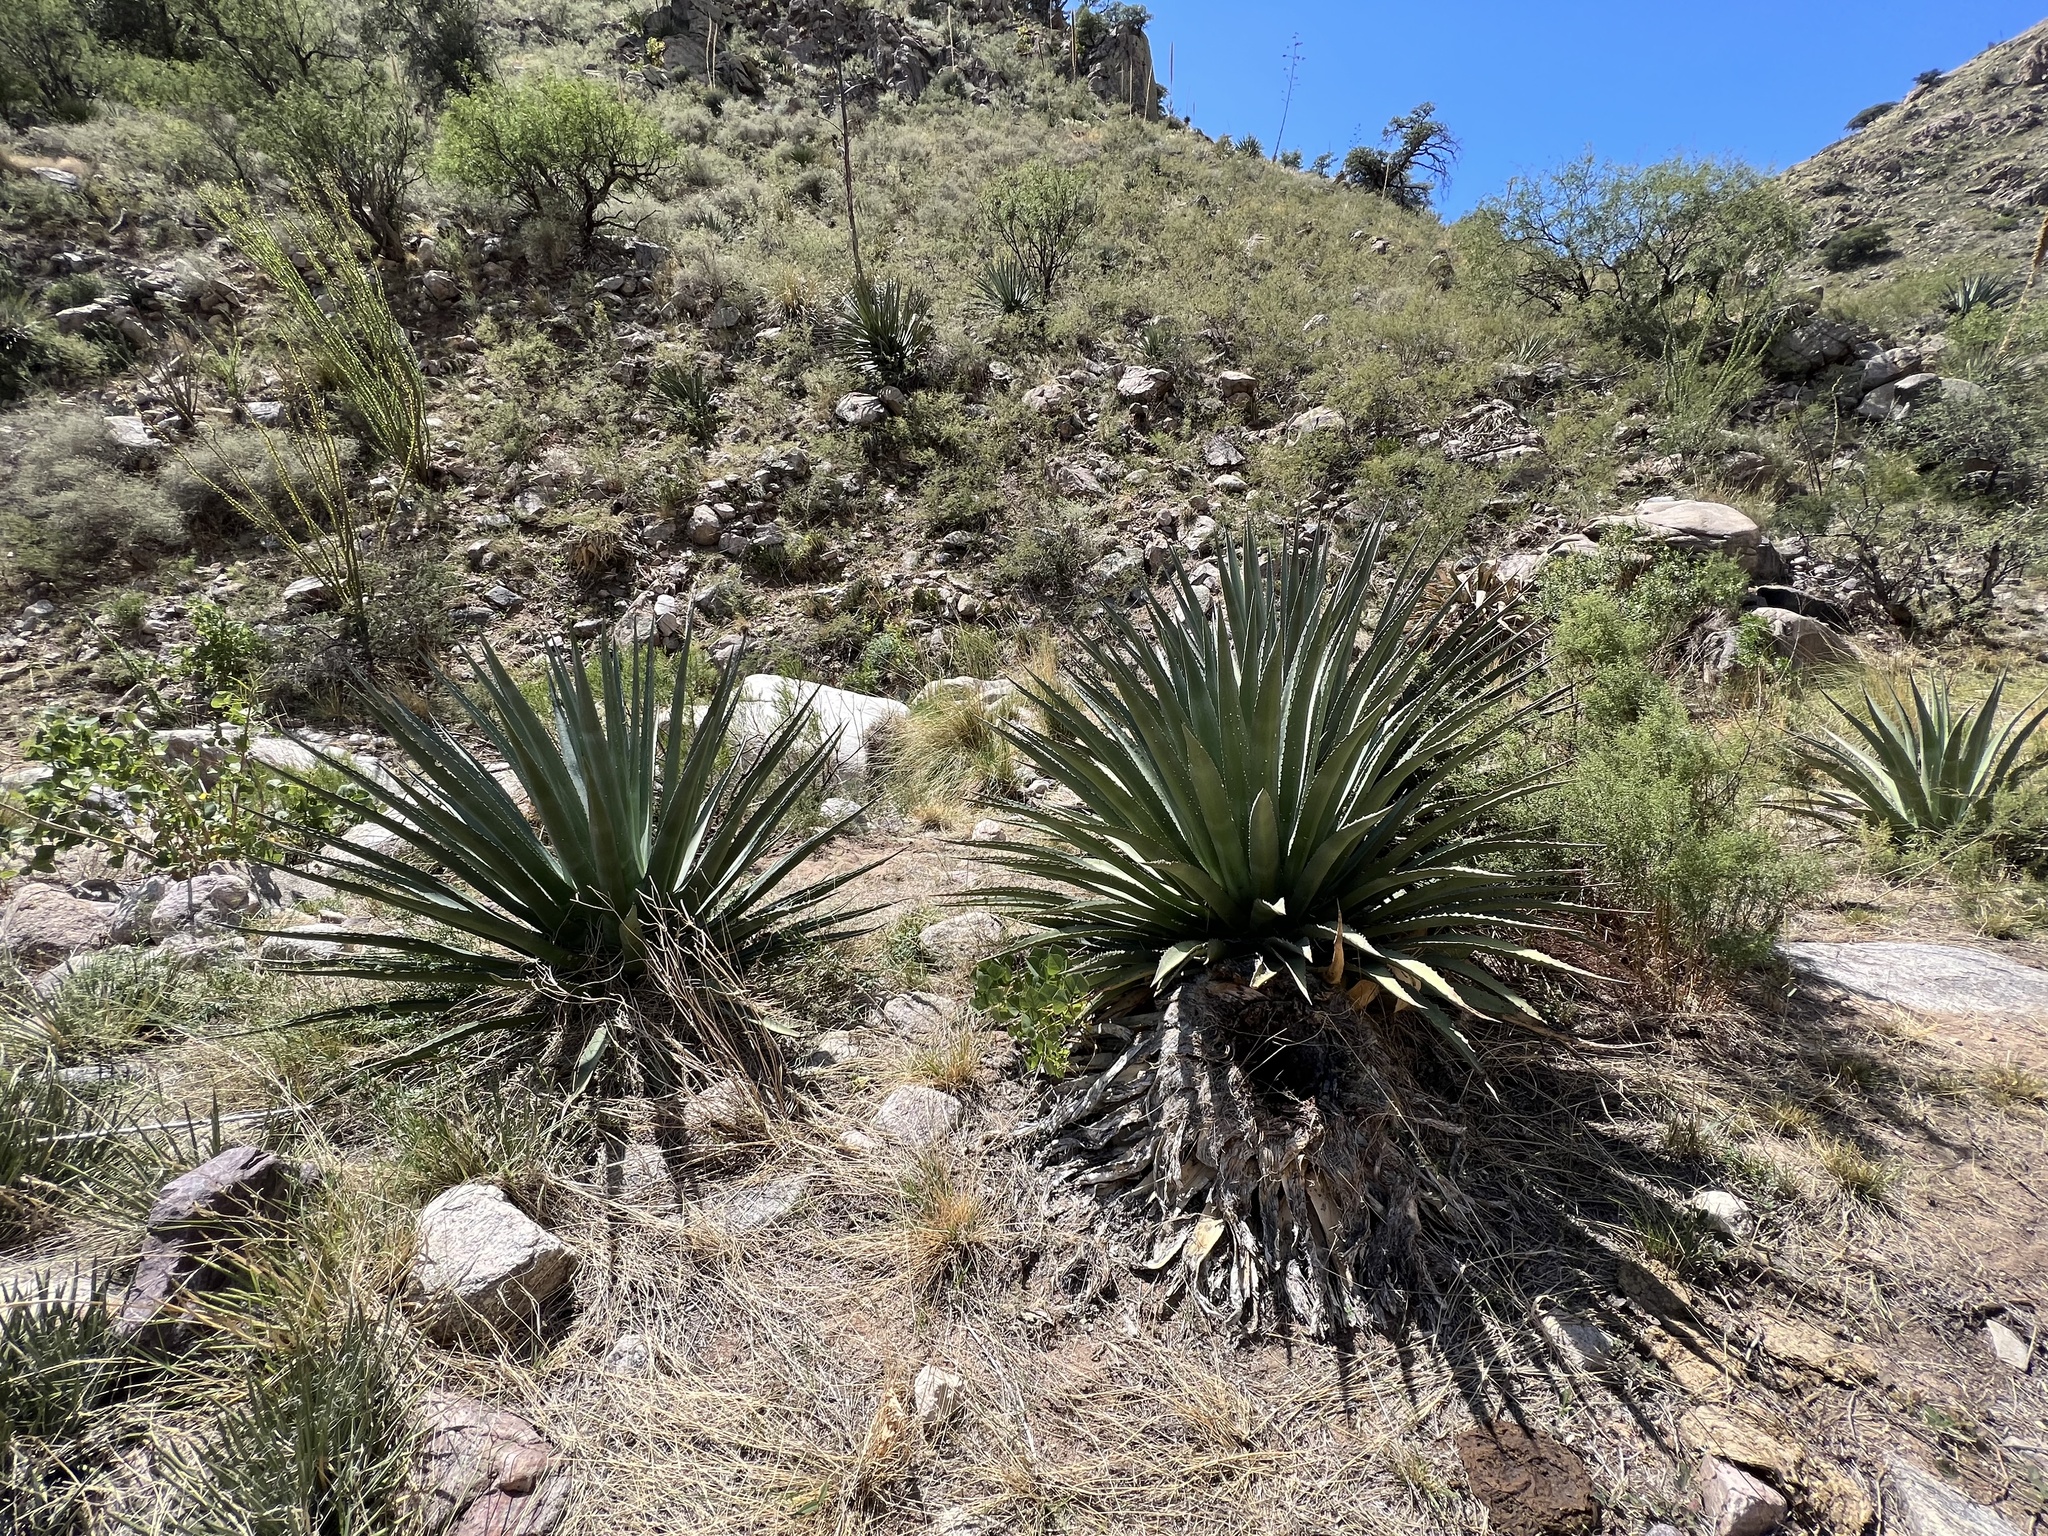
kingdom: Plantae
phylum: Tracheophyta
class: Liliopsida
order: Asparagales
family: Asparagaceae
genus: Agave
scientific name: Agave palmeri
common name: Palmer agave
